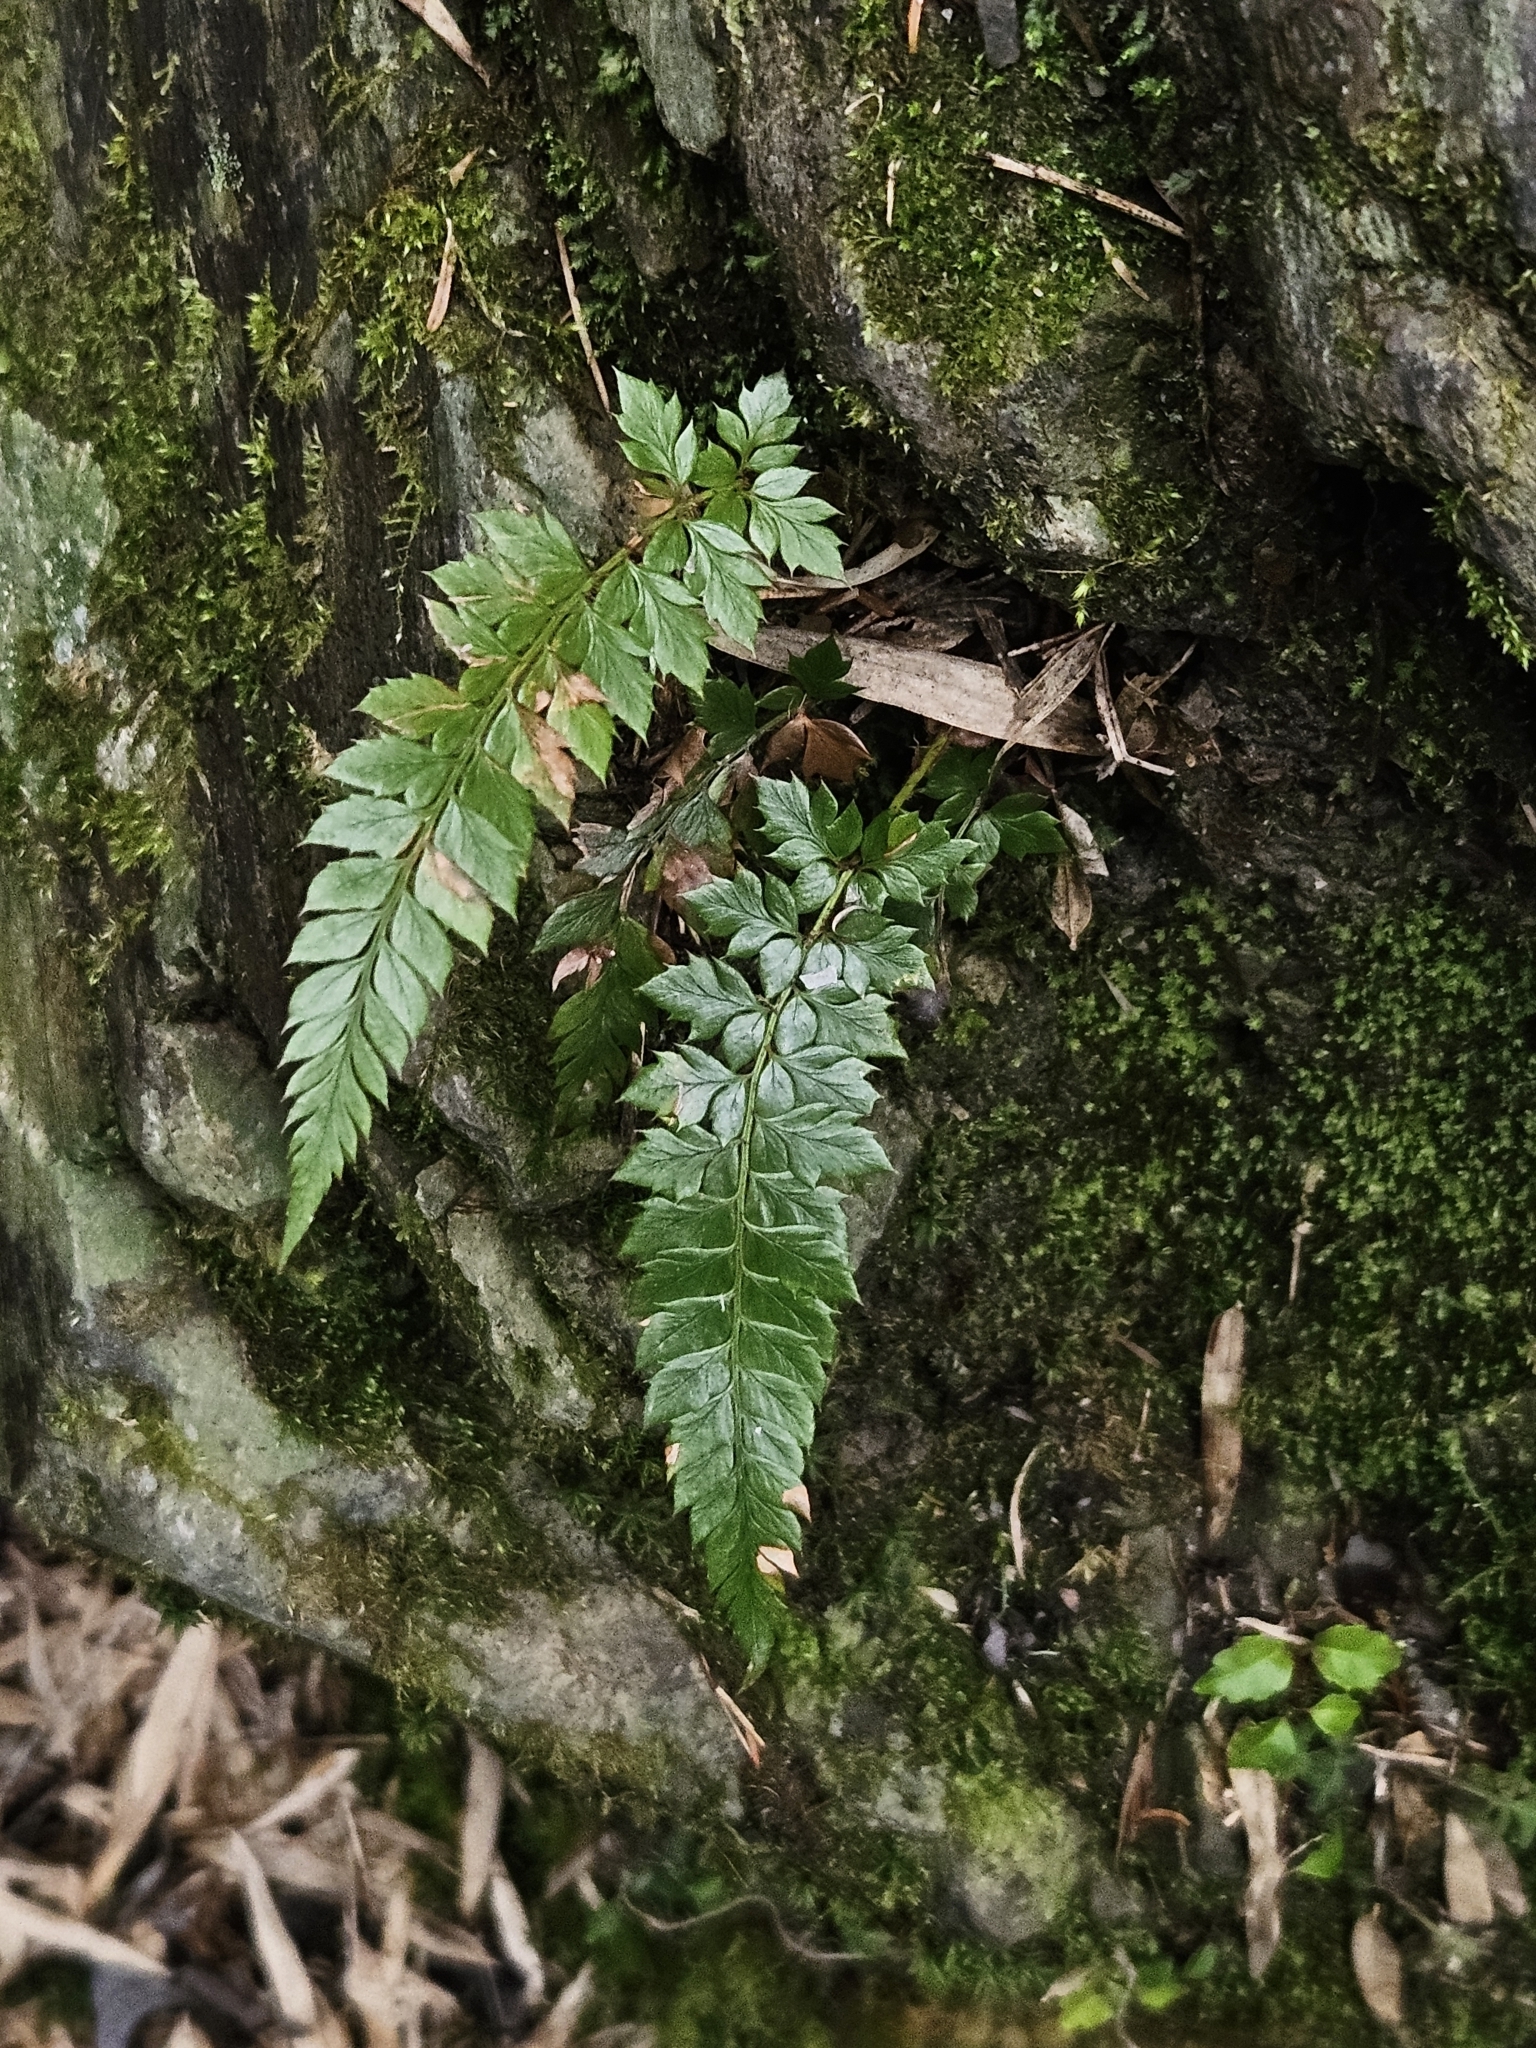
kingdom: Plantae
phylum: Tracheophyta
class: Polypodiopsida
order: Polypodiales
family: Dryopteridaceae
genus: Polystichum
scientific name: Polystichum neolobatum
